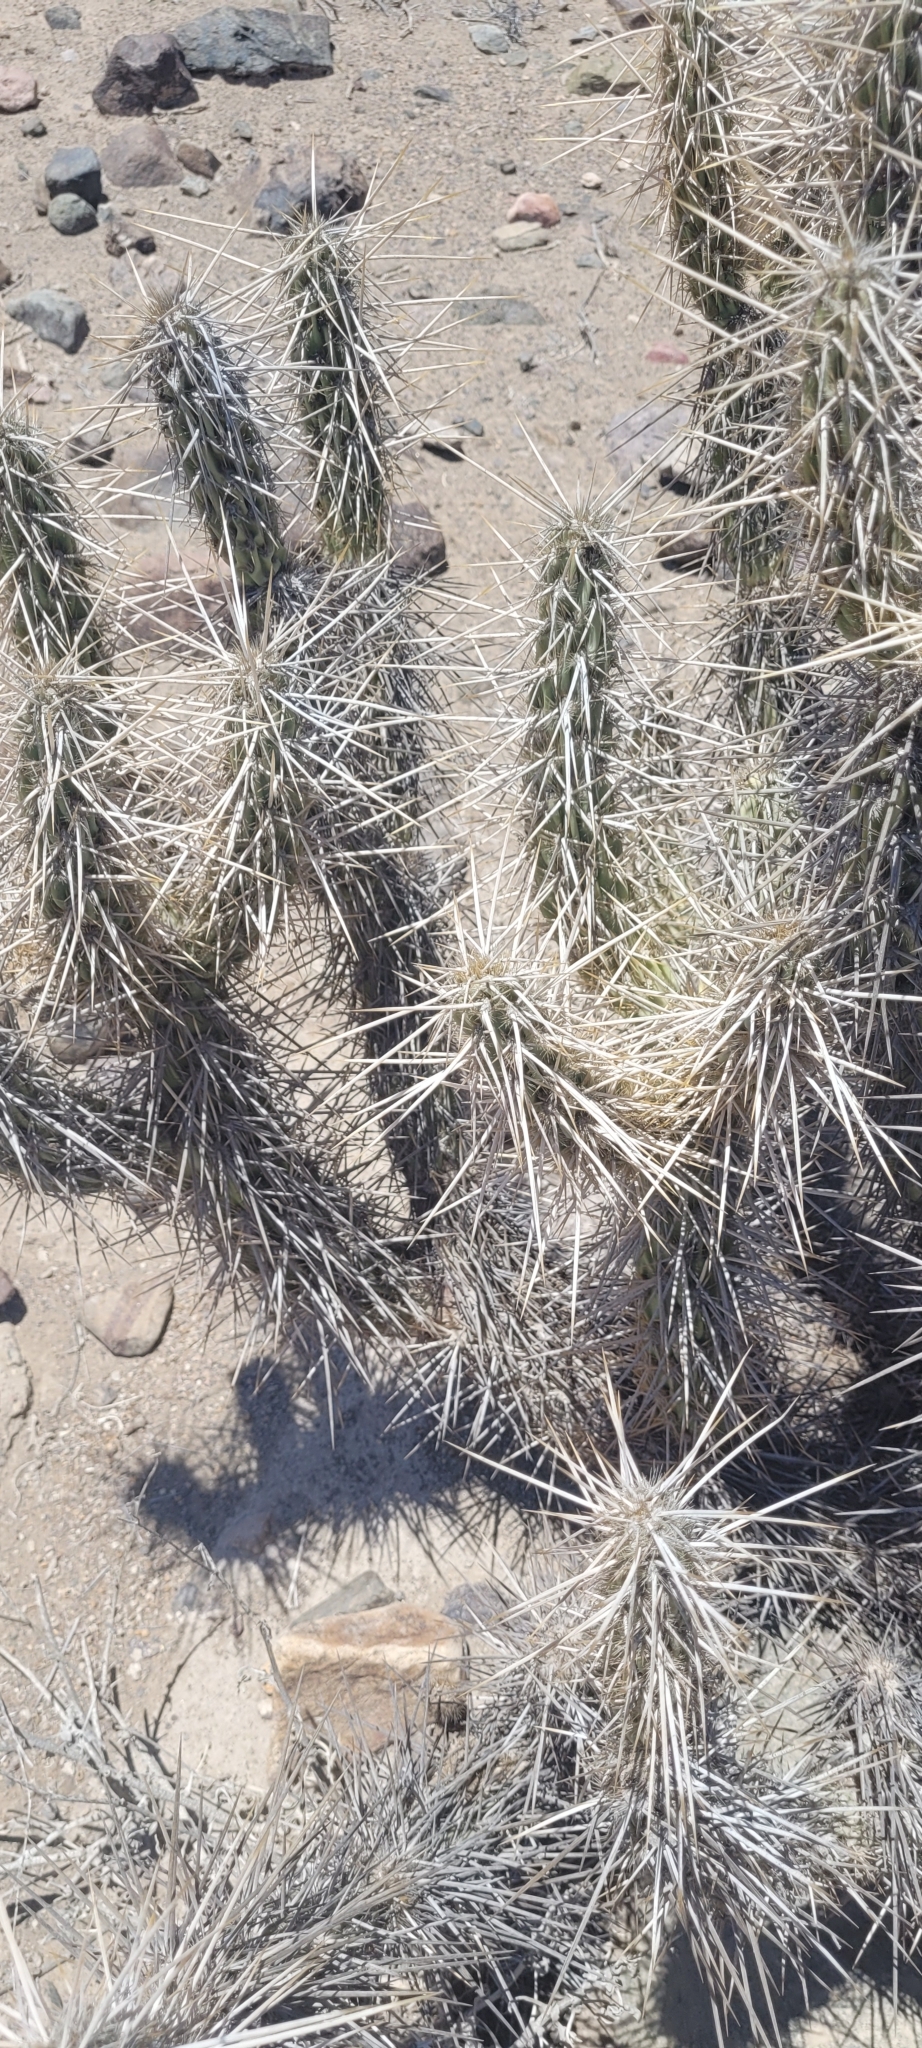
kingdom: Plantae
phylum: Tracheophyta
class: Magnoliopsida
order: Caryophyllales
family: Cactaceae
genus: Miqueliopuntia
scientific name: Miqueliopuntia miquelii
